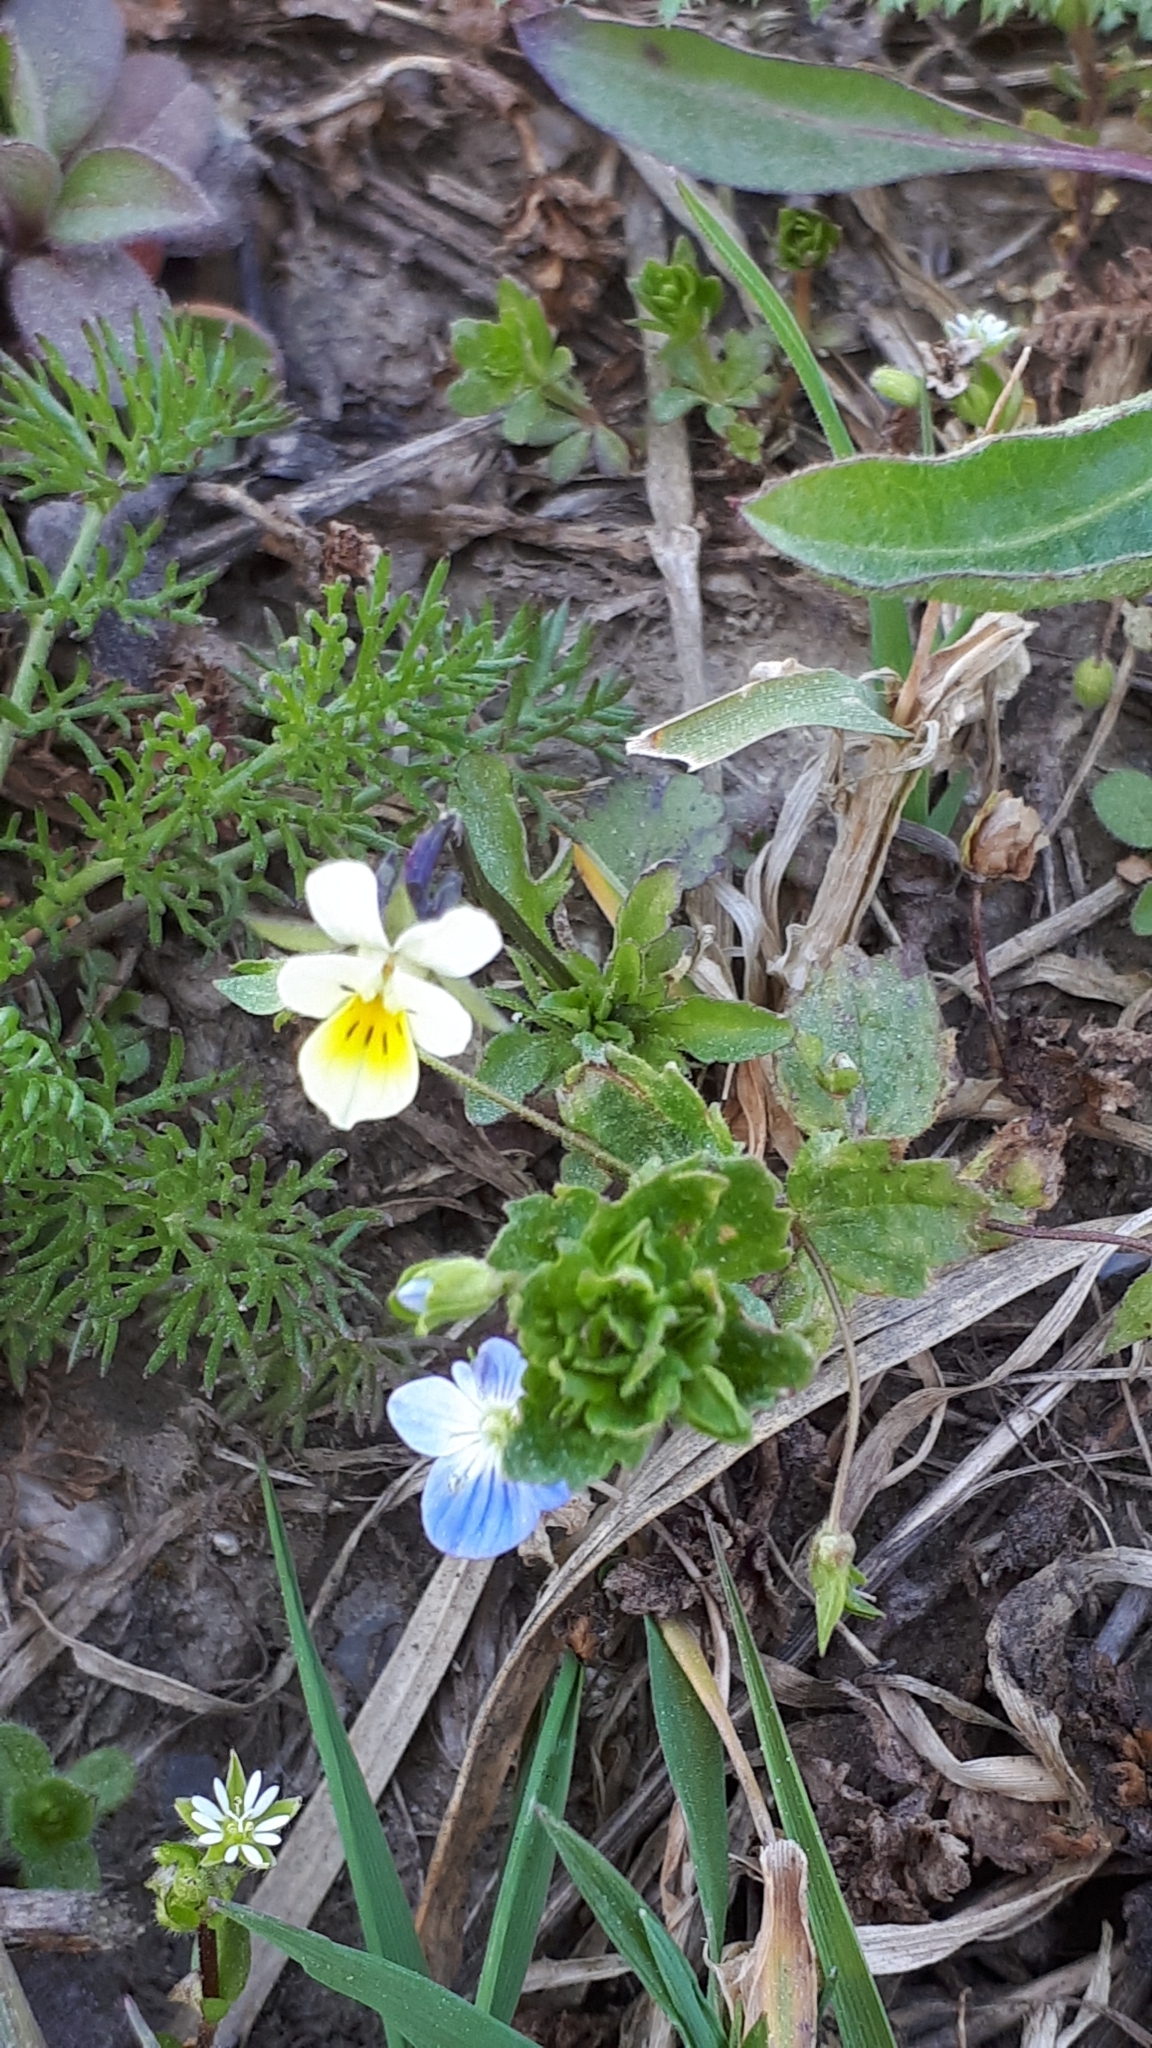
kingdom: Plantae
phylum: Tracheophyta
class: Magnoliopsida
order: Malpighiales
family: Violaceae
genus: Viola
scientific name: Viola arvensis
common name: Field pansy
